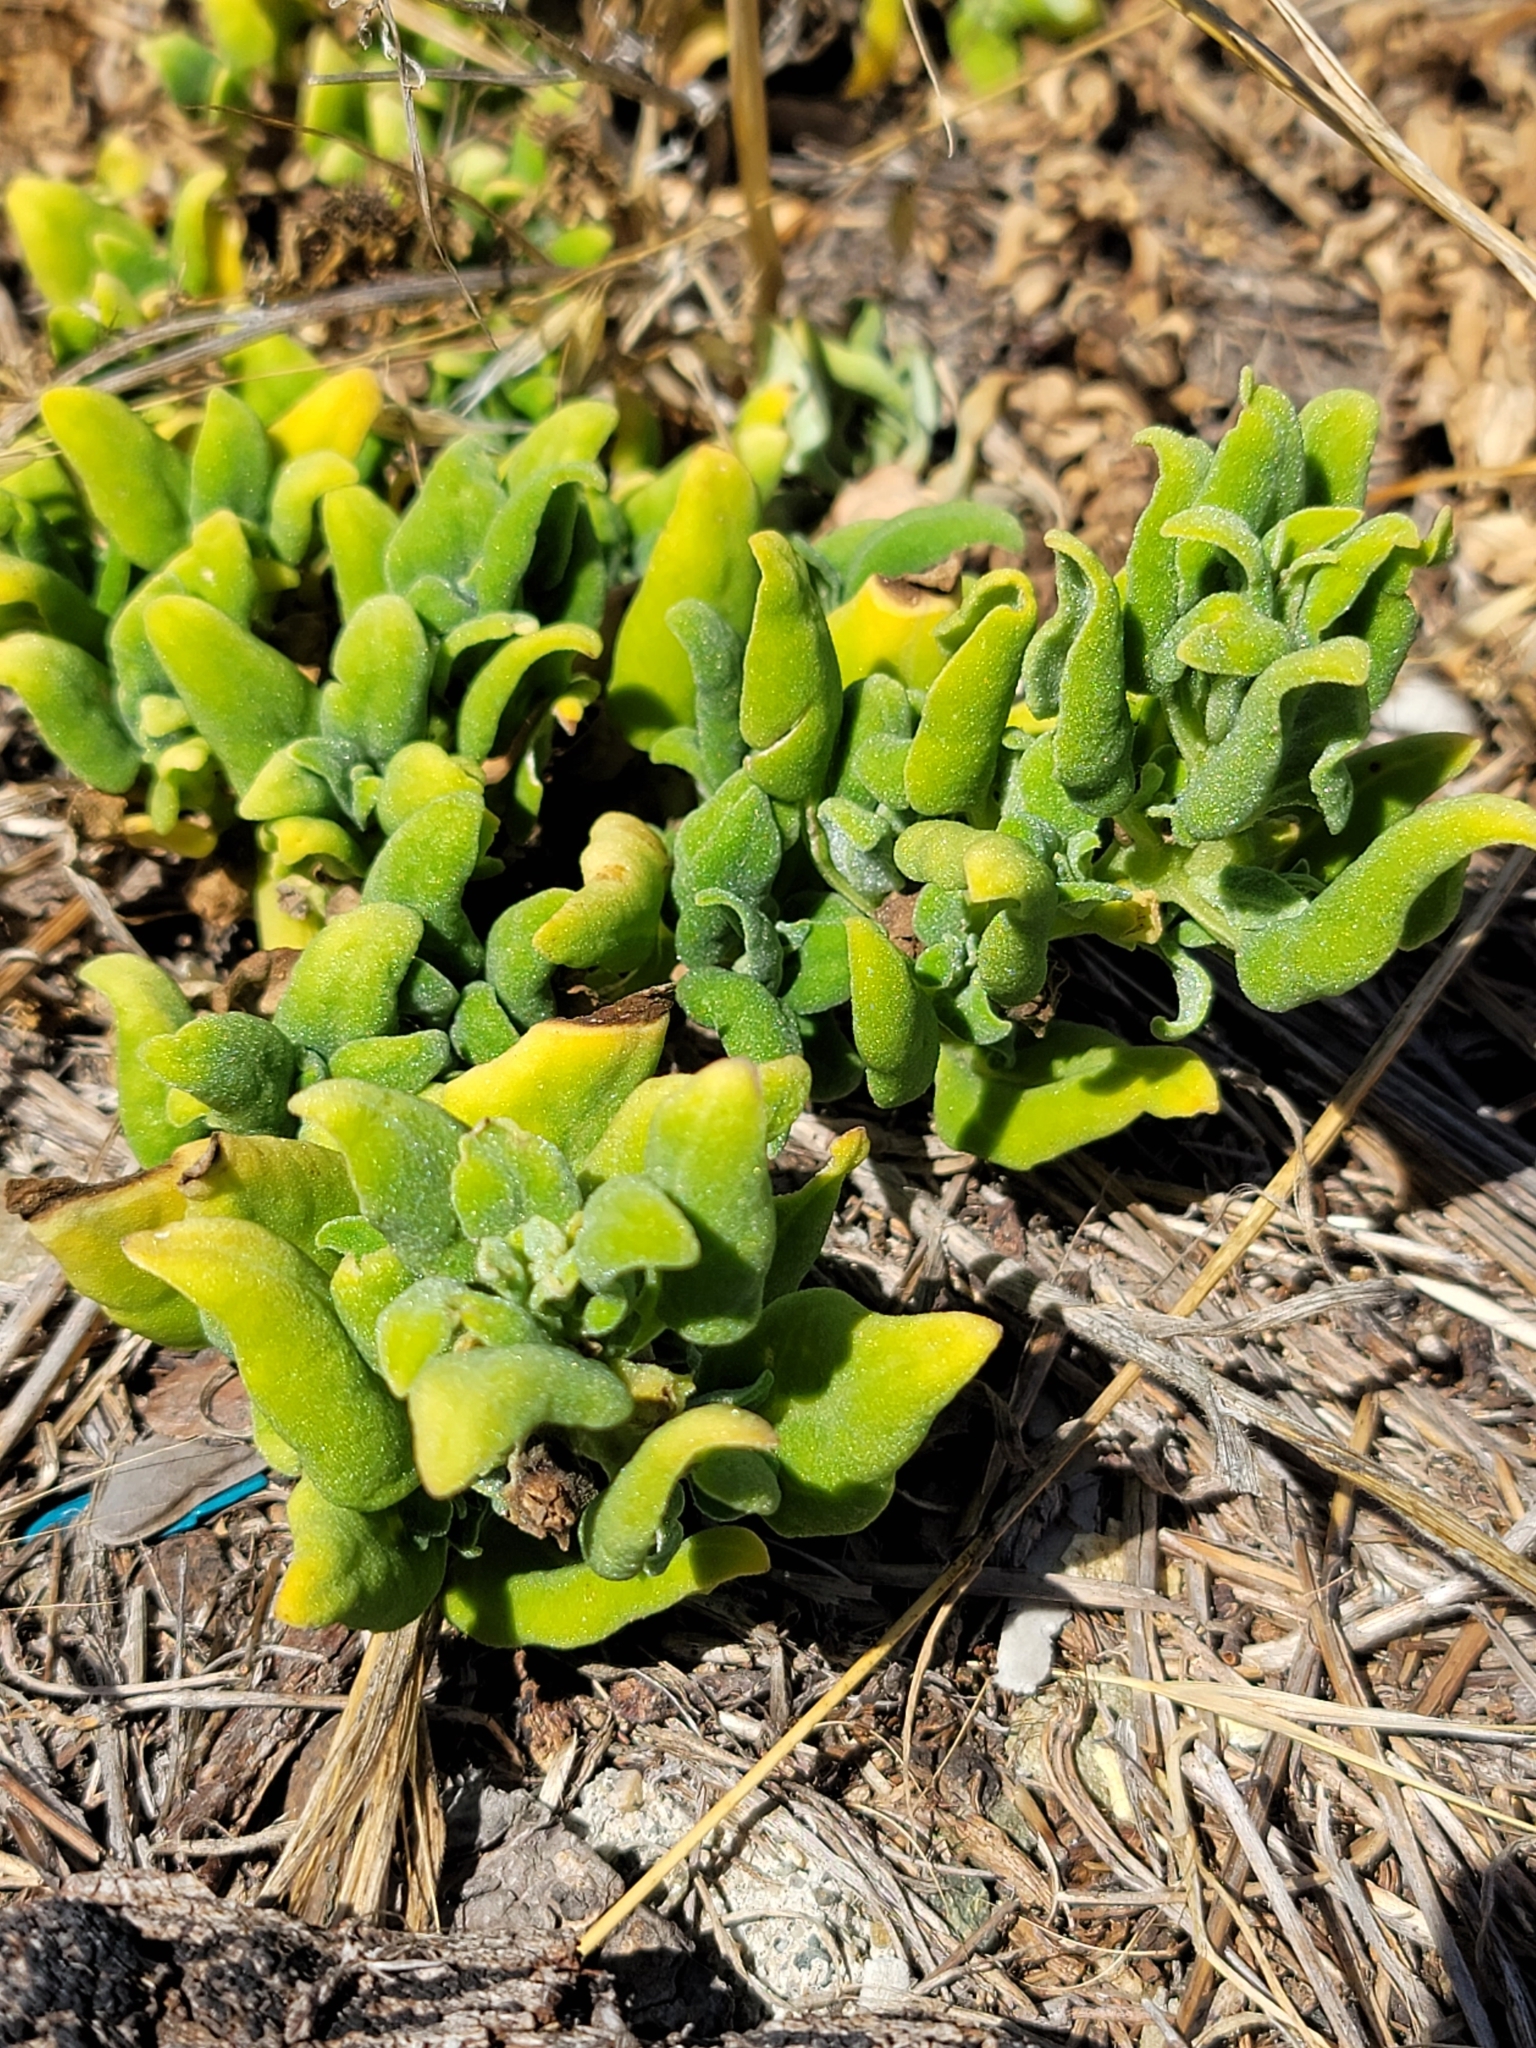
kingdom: Plantae
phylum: Tracheophyta
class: Magnoliopsida
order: Caryophyllales
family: Aizoaceae
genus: Tetragonia
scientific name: Tetragonia tetragonoides
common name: New zealand-spinach
